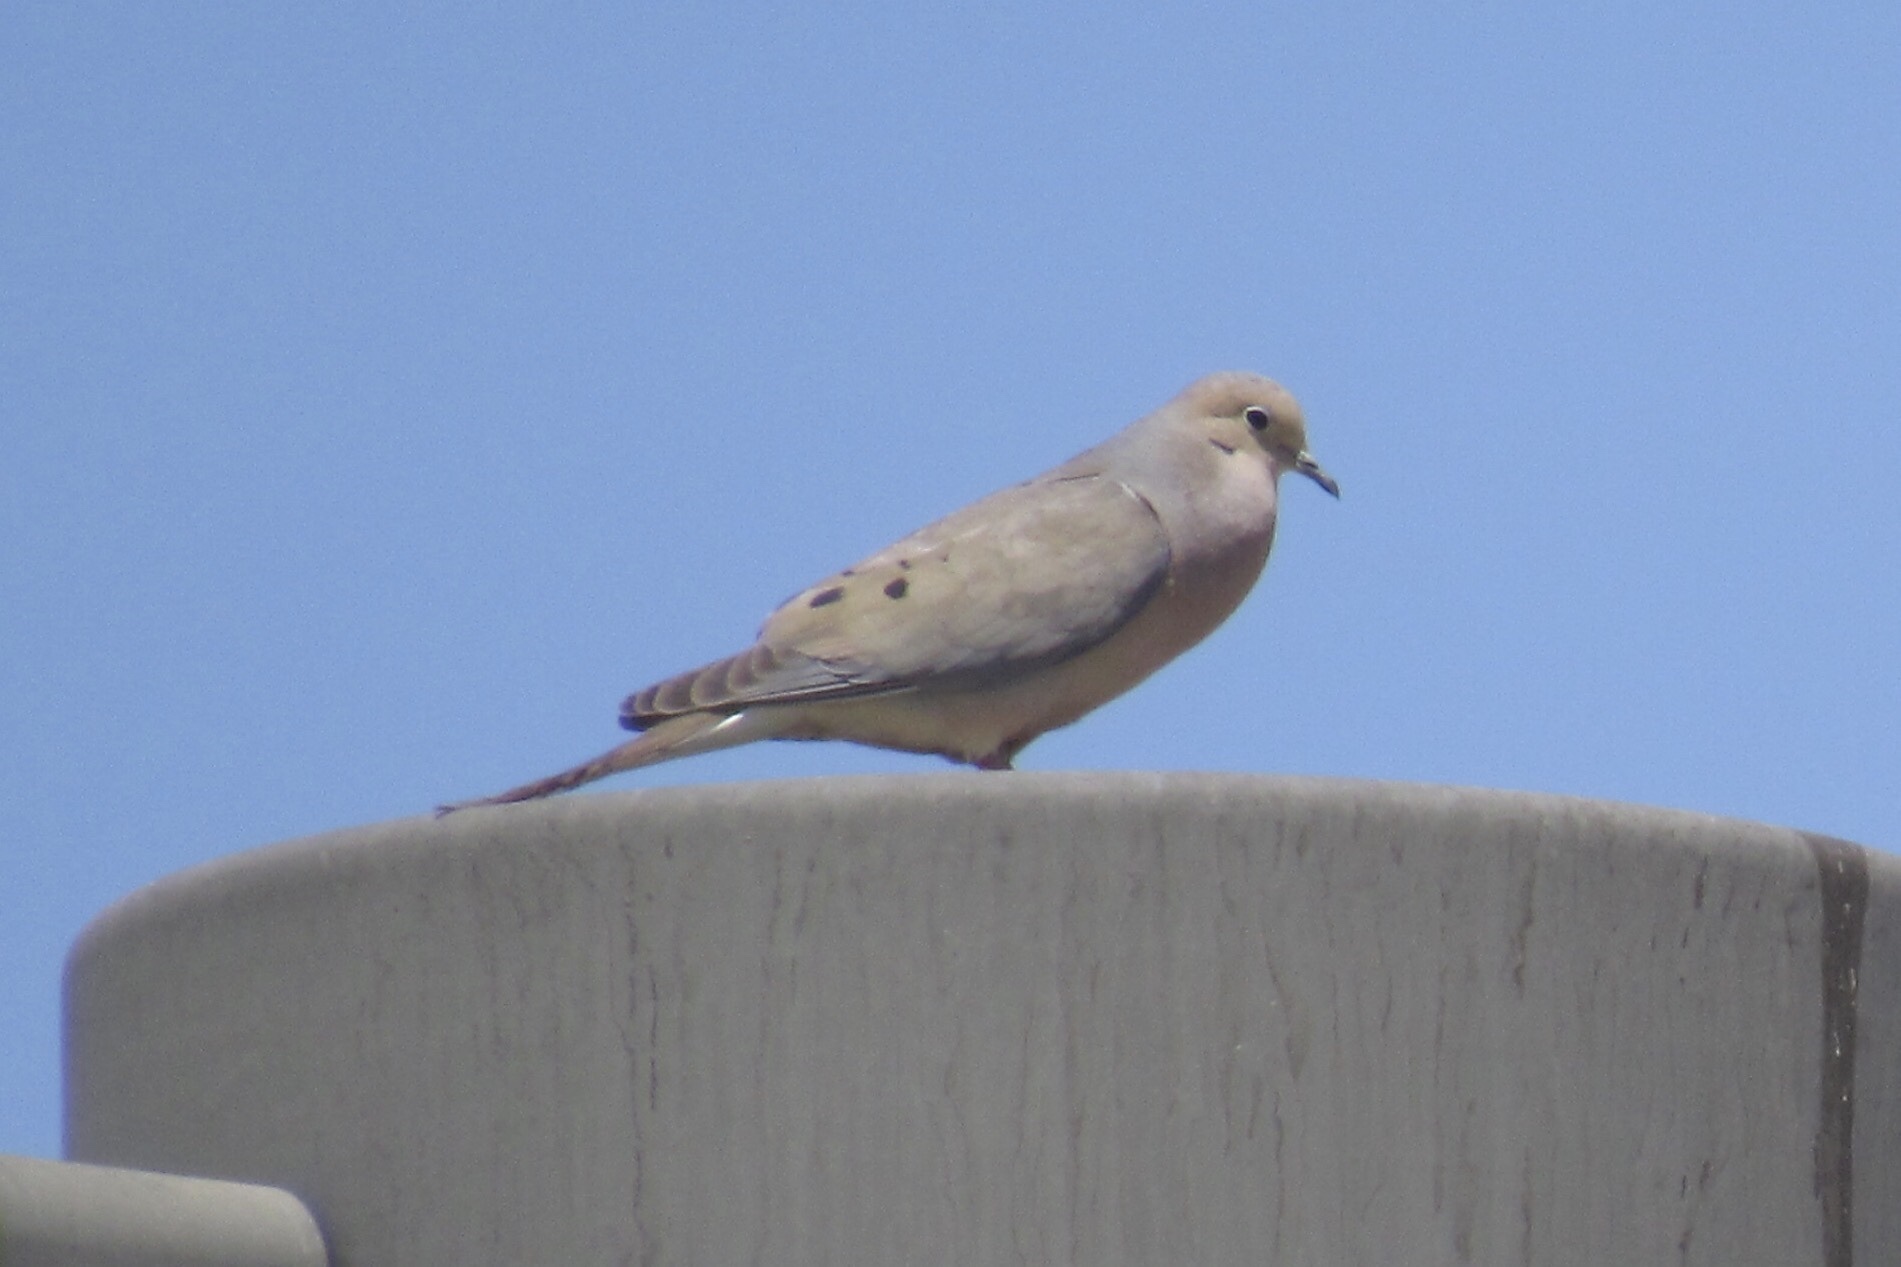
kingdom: Animalia
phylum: Chordata
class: Aves
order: Columbiformes
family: Columbidae
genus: Zenaida
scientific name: Zenaida macroura
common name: Mourning dove
